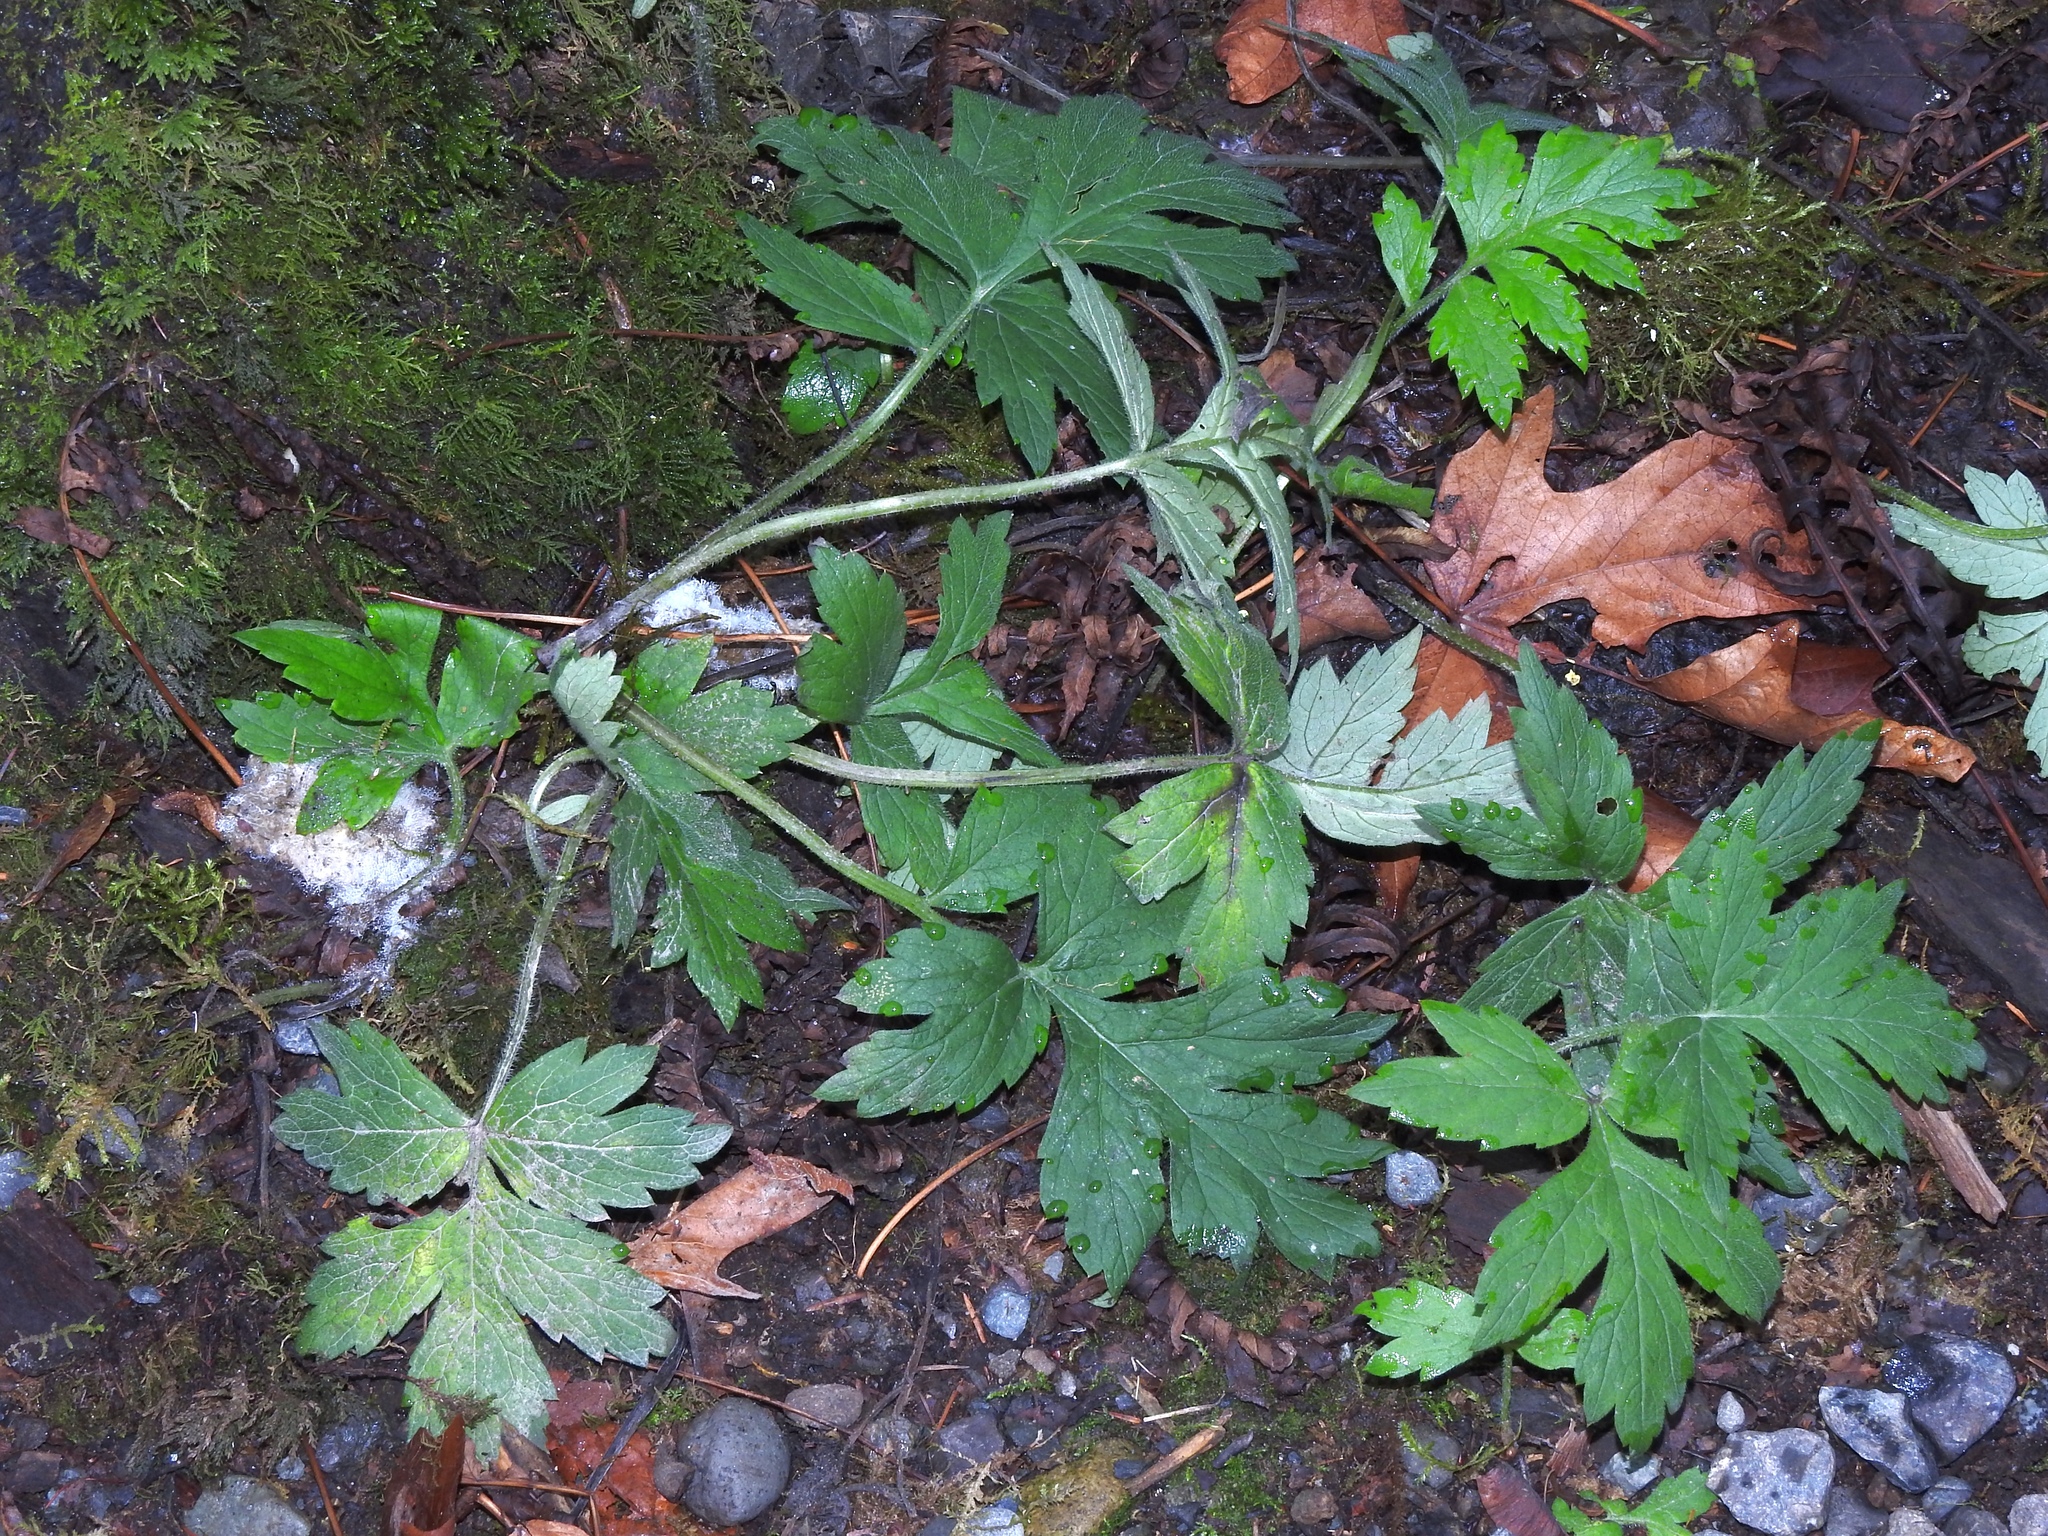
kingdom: Plantae
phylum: Tracheophyta
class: Magnoliopsida
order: Boraginales
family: Hydrophyllaceae
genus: Hydrophyllum
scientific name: Hydrophyllum tenuipes
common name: Pacific waterleaf
